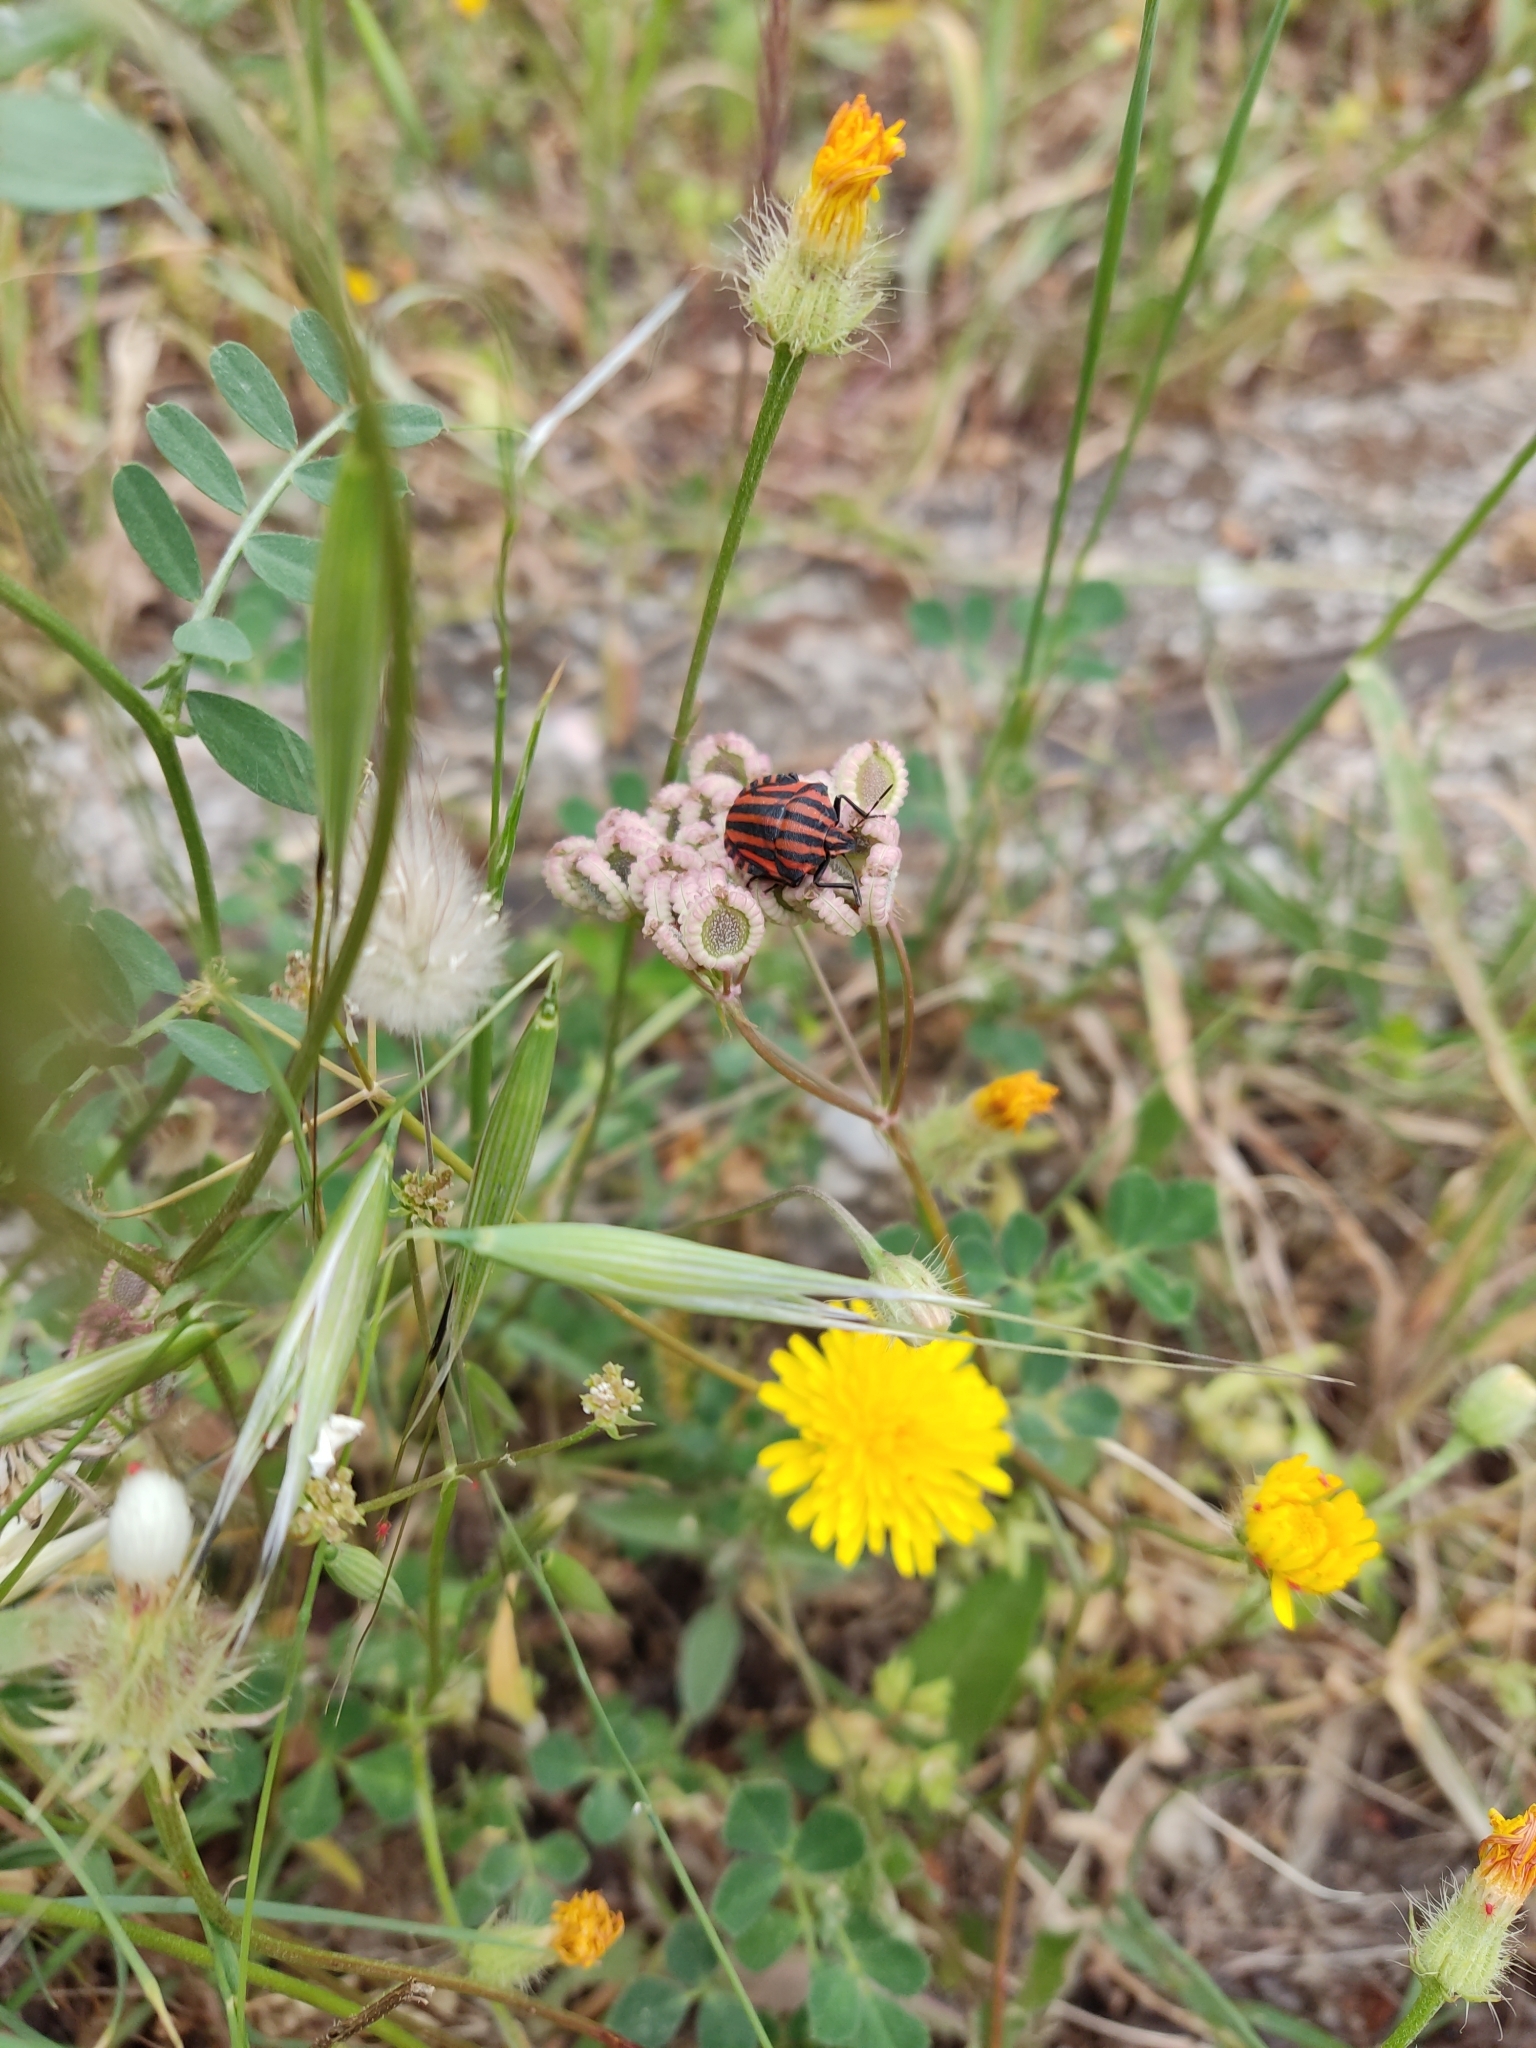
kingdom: Animalia
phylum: Arthropoda
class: Insecta
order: Hemiptera
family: Pentatomidae
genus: Graphosoma
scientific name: Graphosoma italicum
